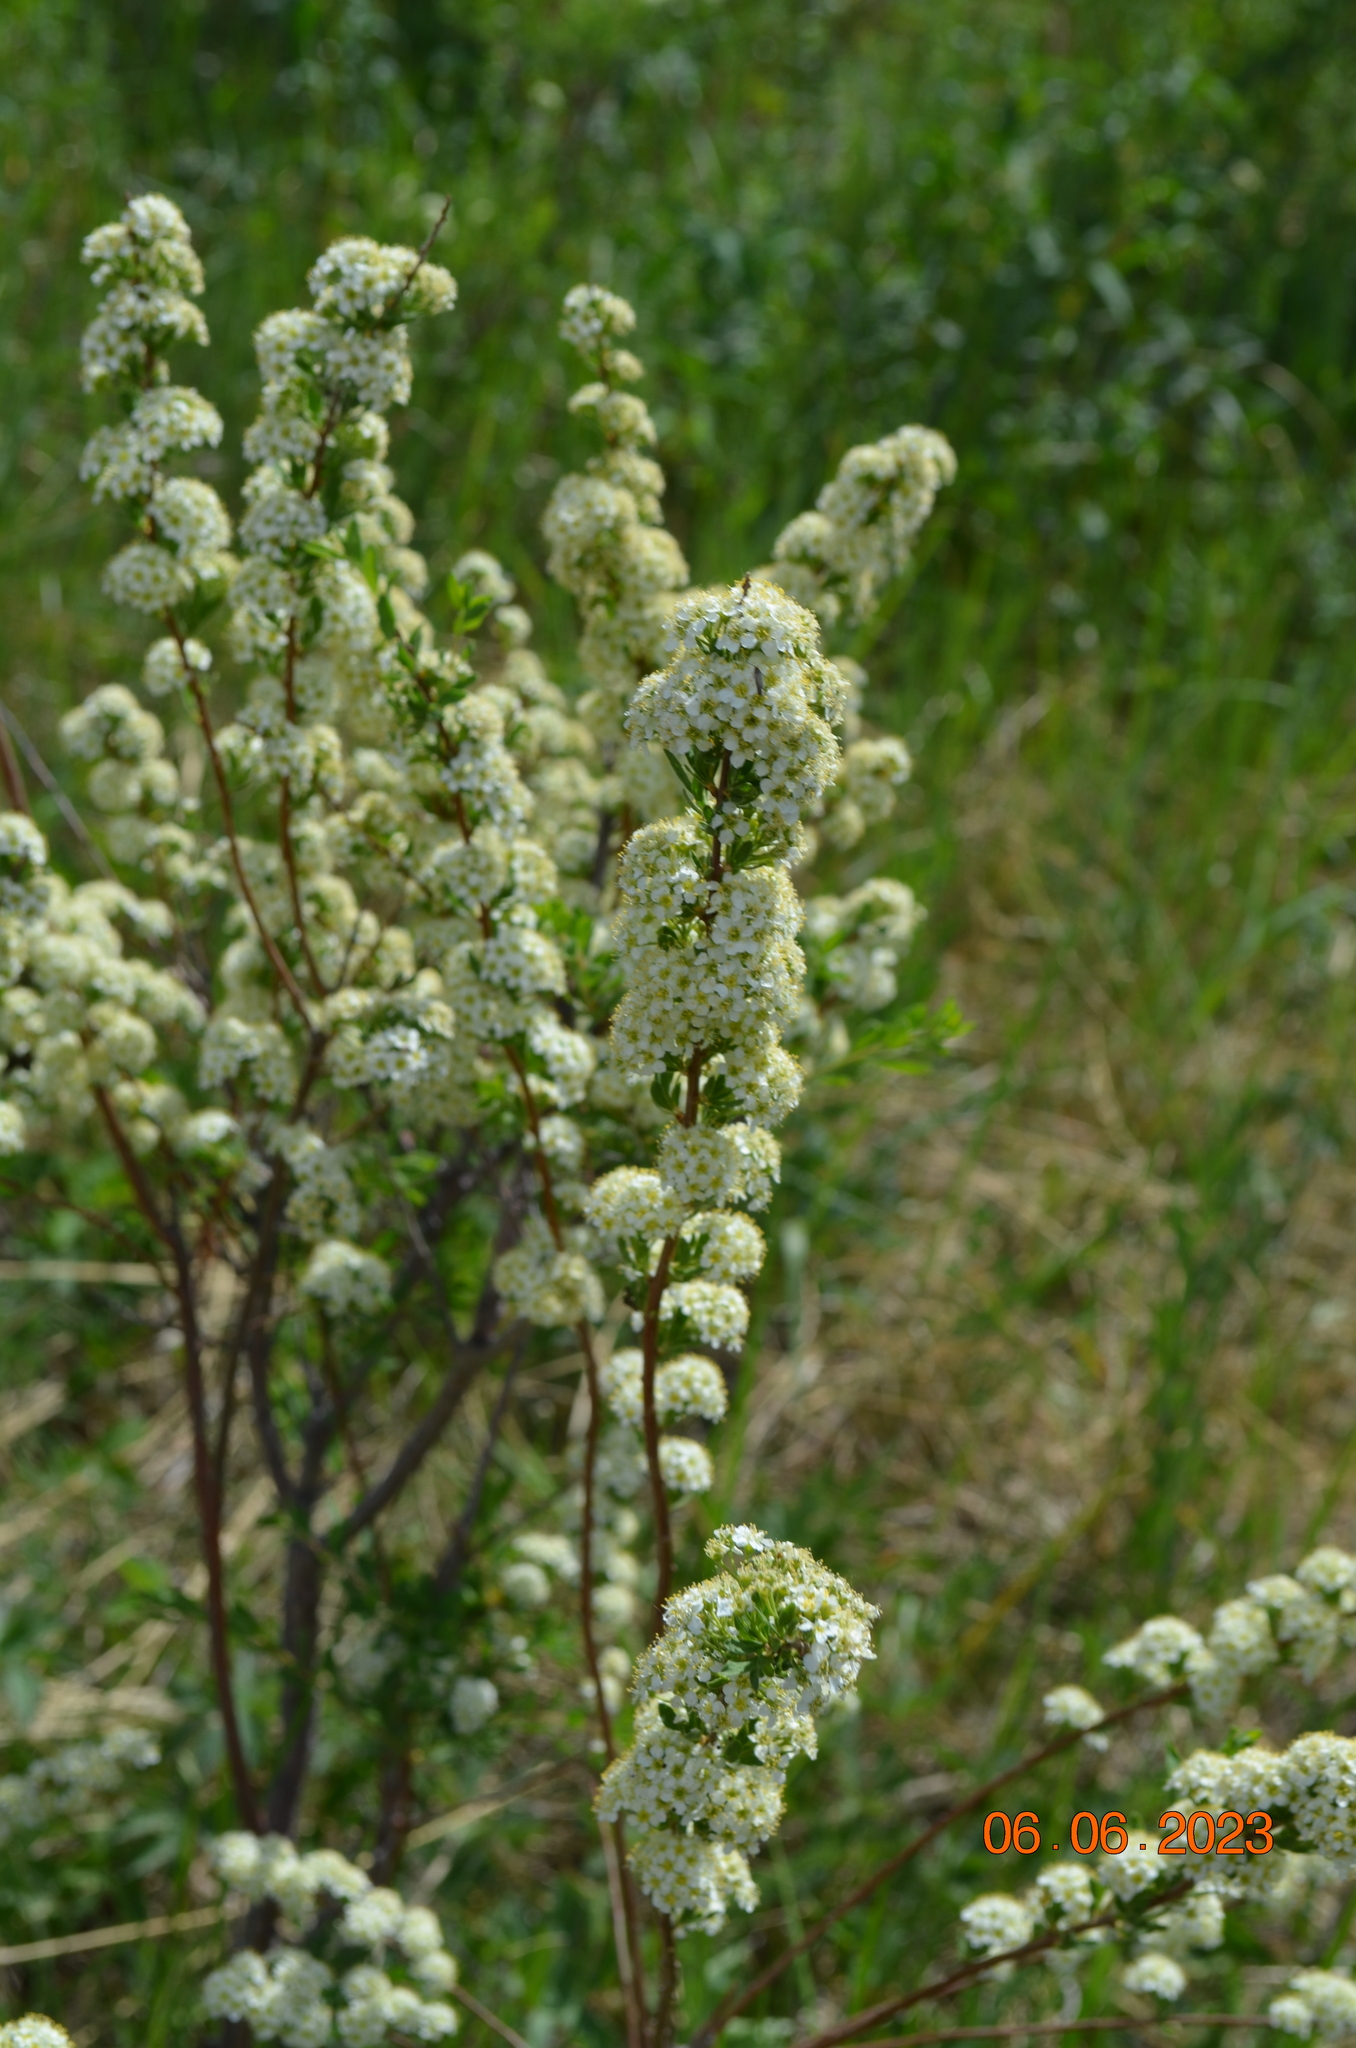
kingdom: Plantae
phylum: Tracheophyta
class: Magnoliopsida
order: Rosales
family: Rosaceae
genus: Spiraea
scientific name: Spiraea hypericifolia
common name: Iberian spirea
